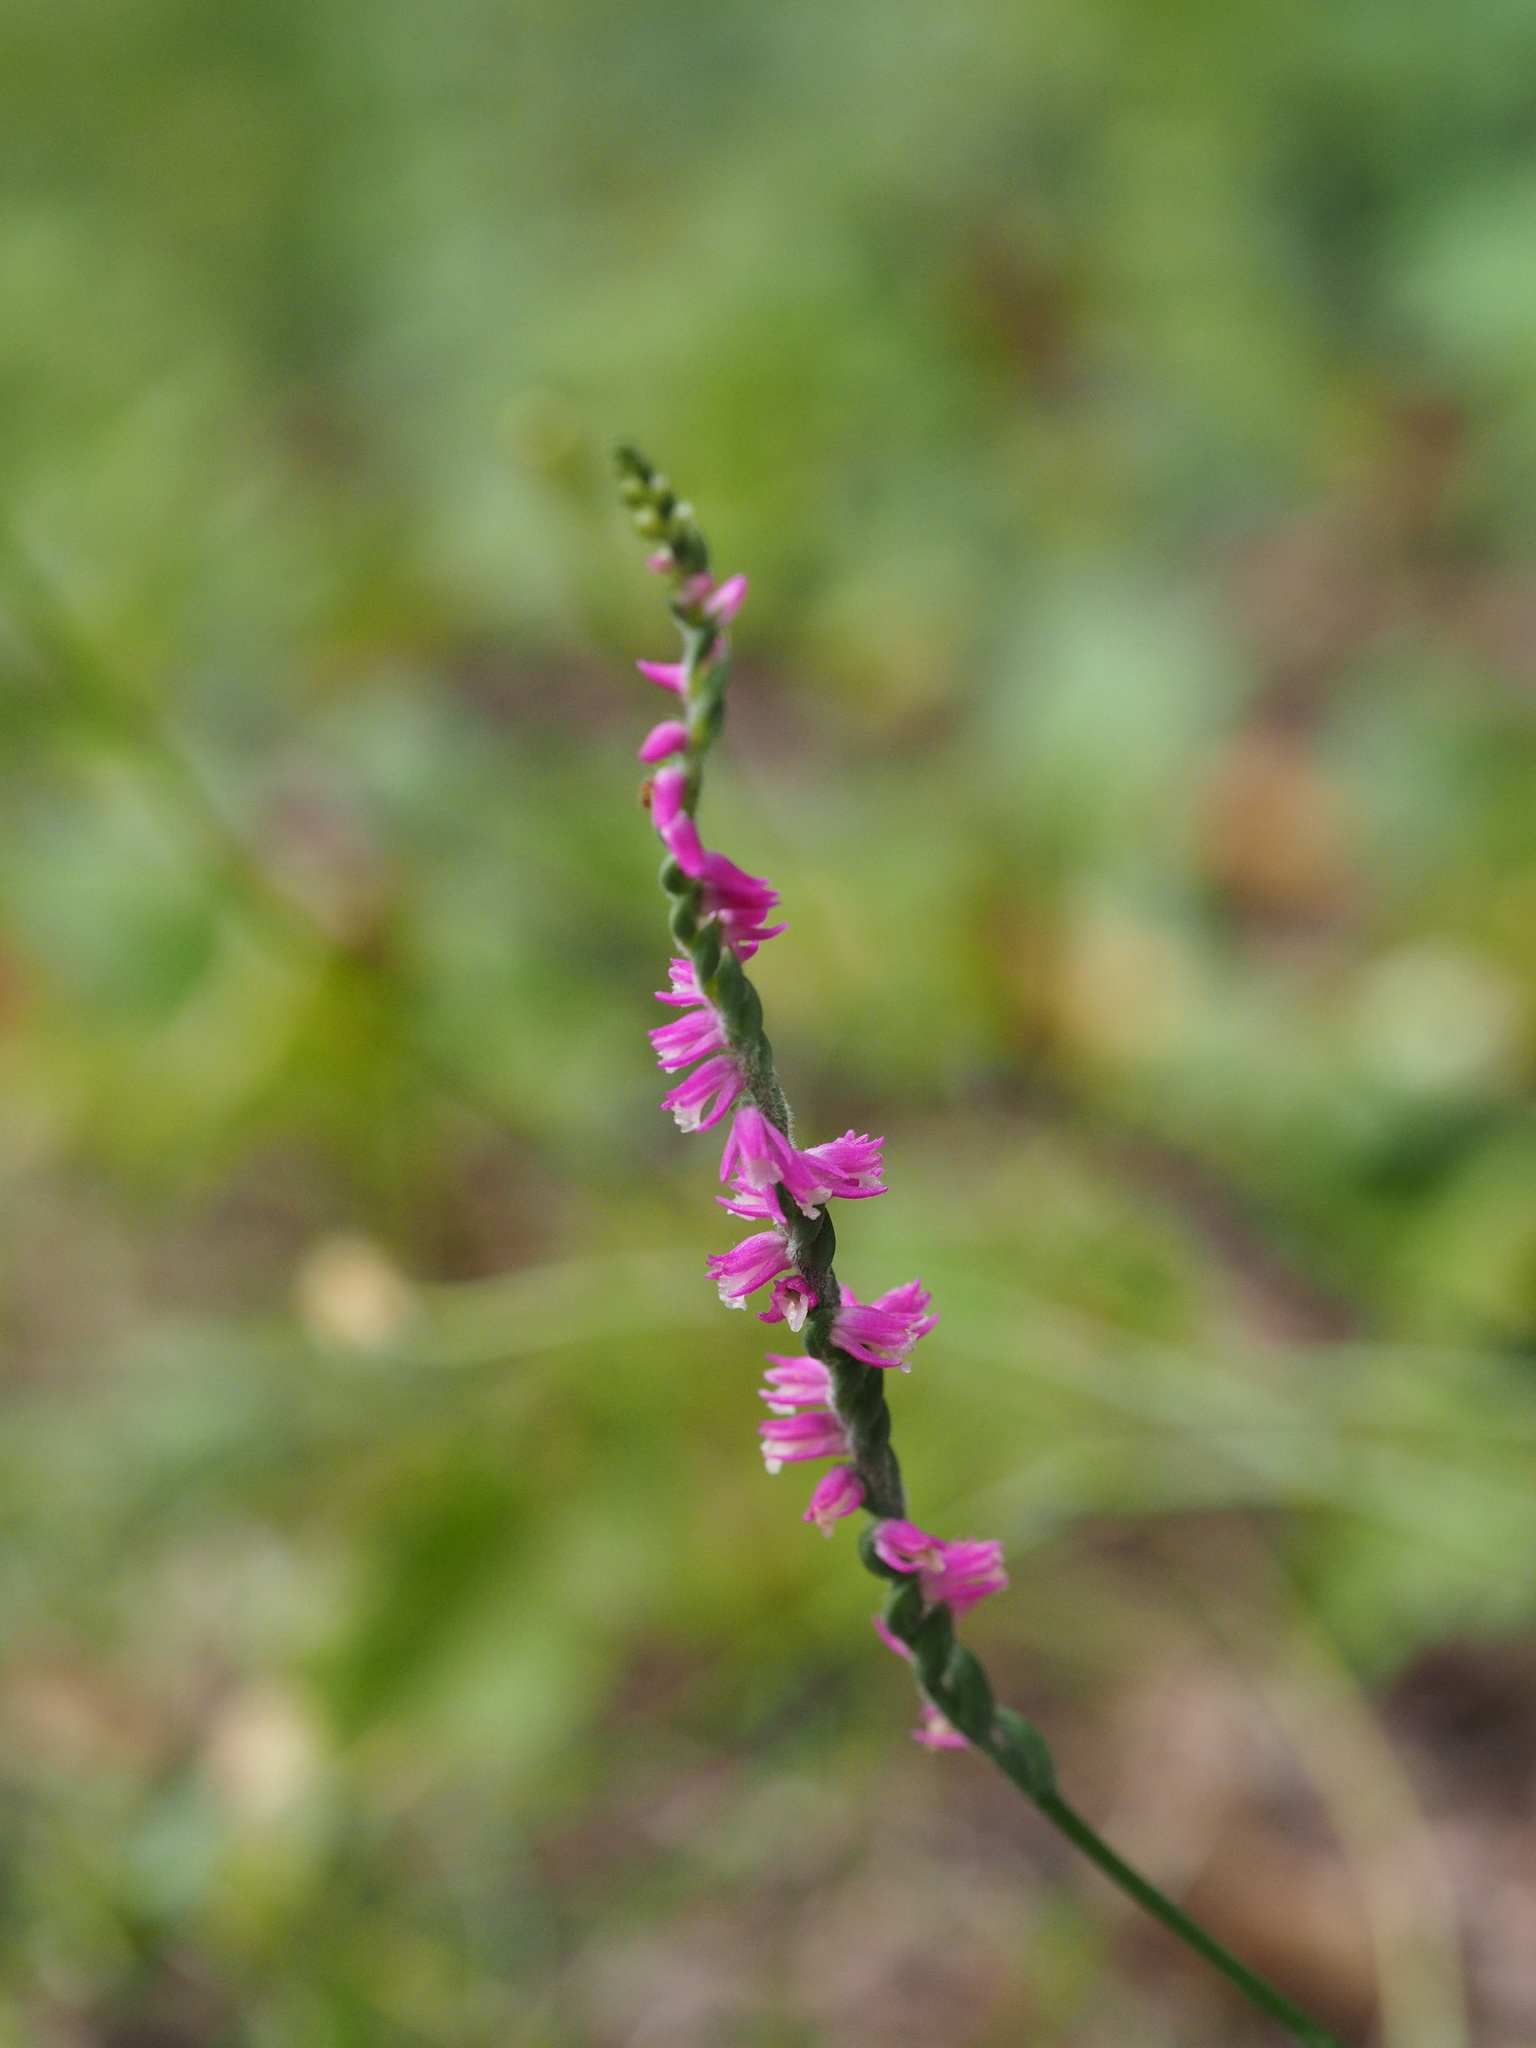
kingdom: Plantae
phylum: Tracheophyta
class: Liliopsida
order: Asparagales
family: Orchidaceae
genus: Spiranthes
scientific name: Spiranthes australis
